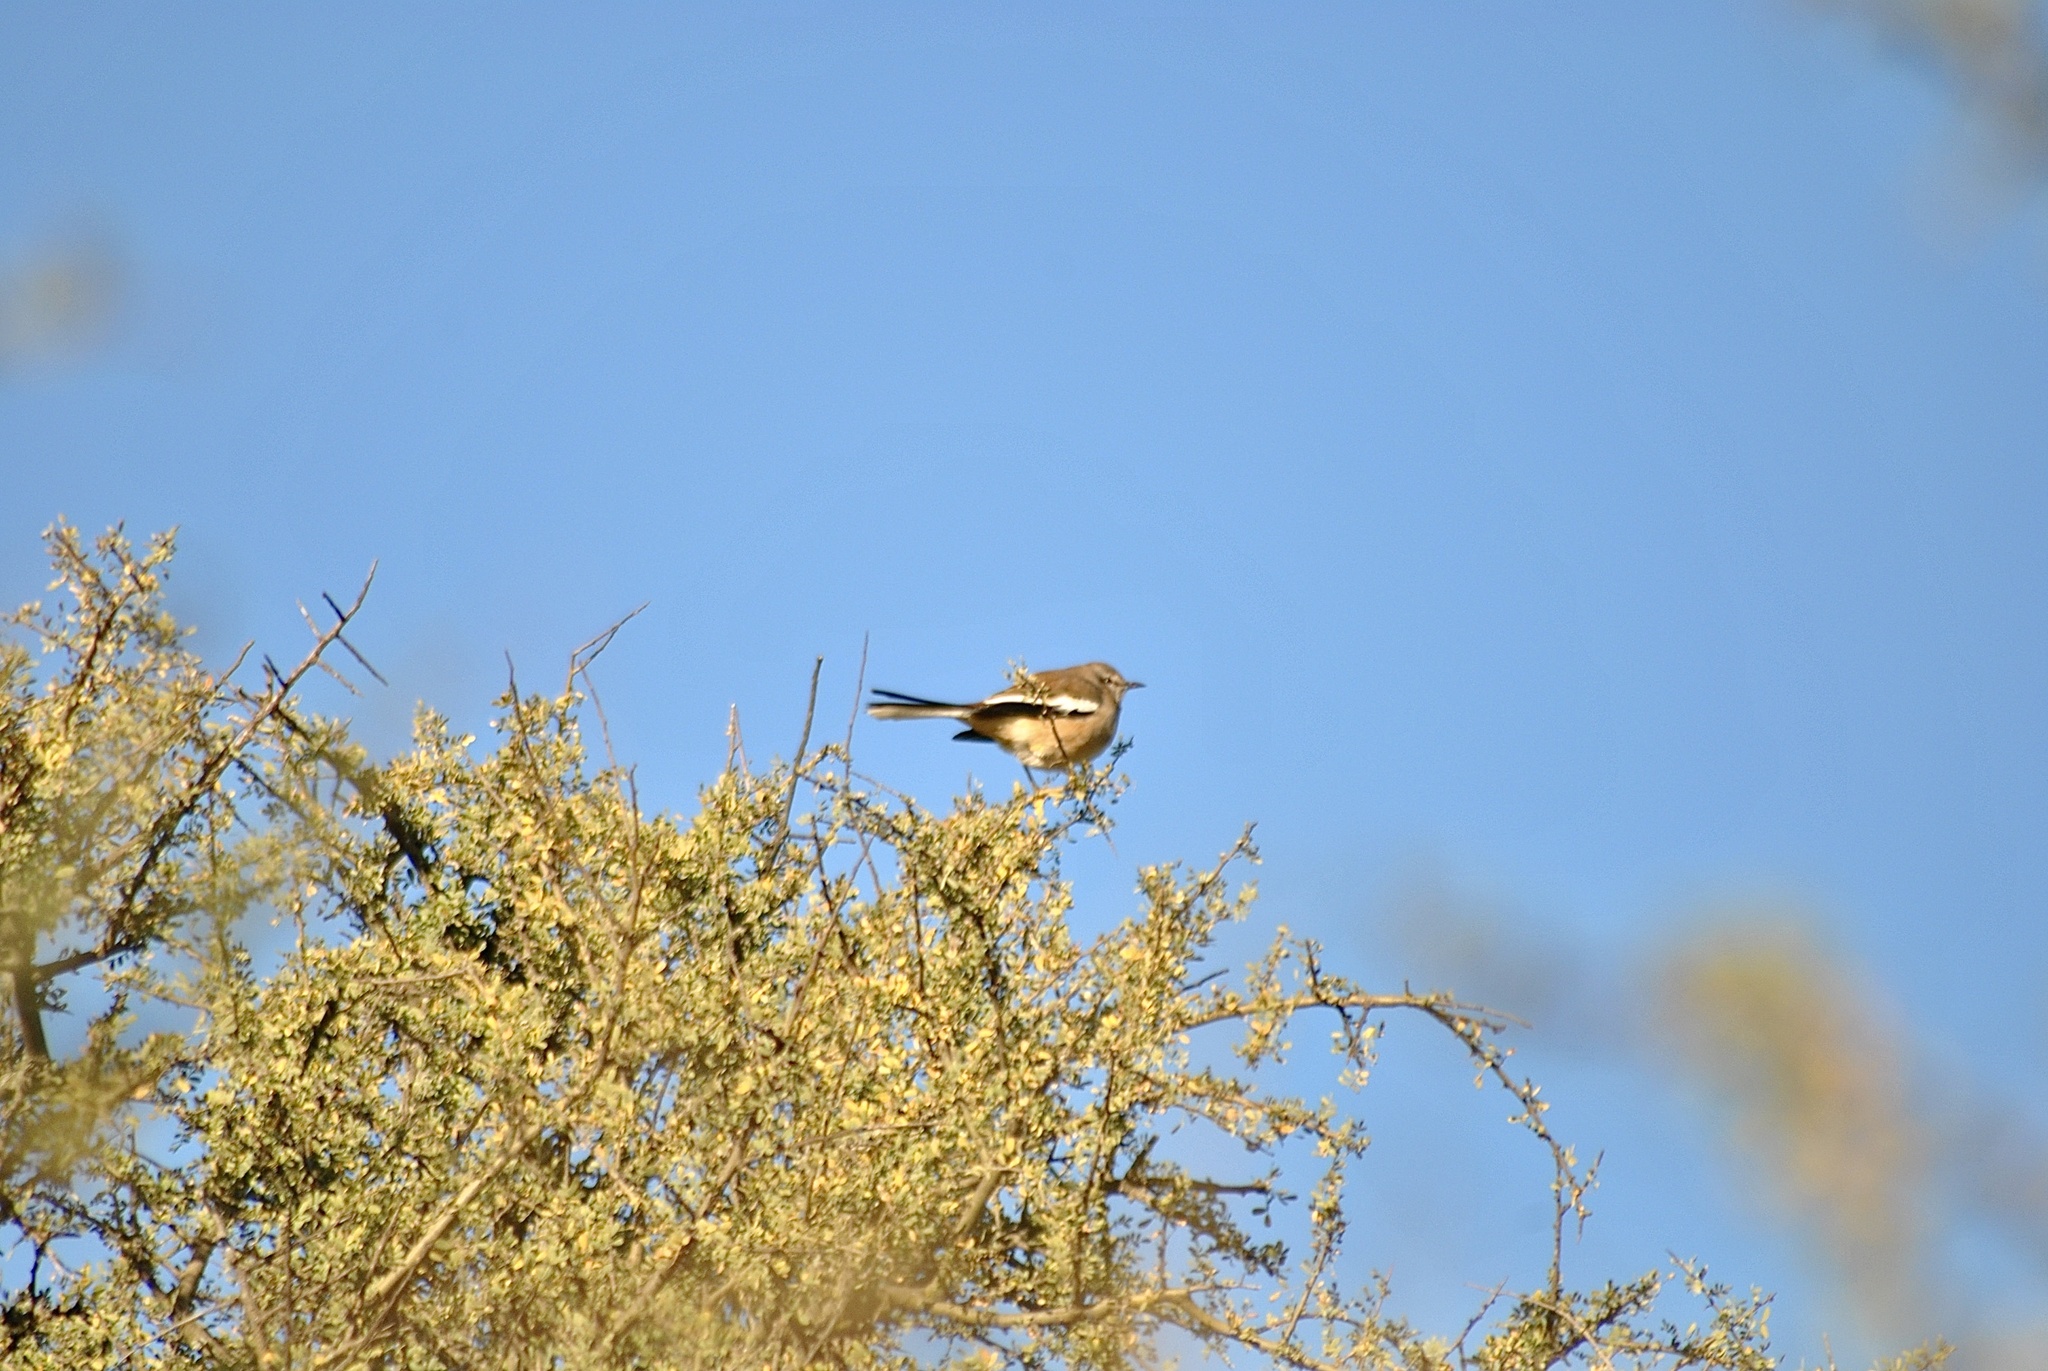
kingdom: Animalia
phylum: Chordata
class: Aves
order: Passeriformes
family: Mimidae
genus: Mimus
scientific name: Mimus triurus
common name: White-banded mockingbird
